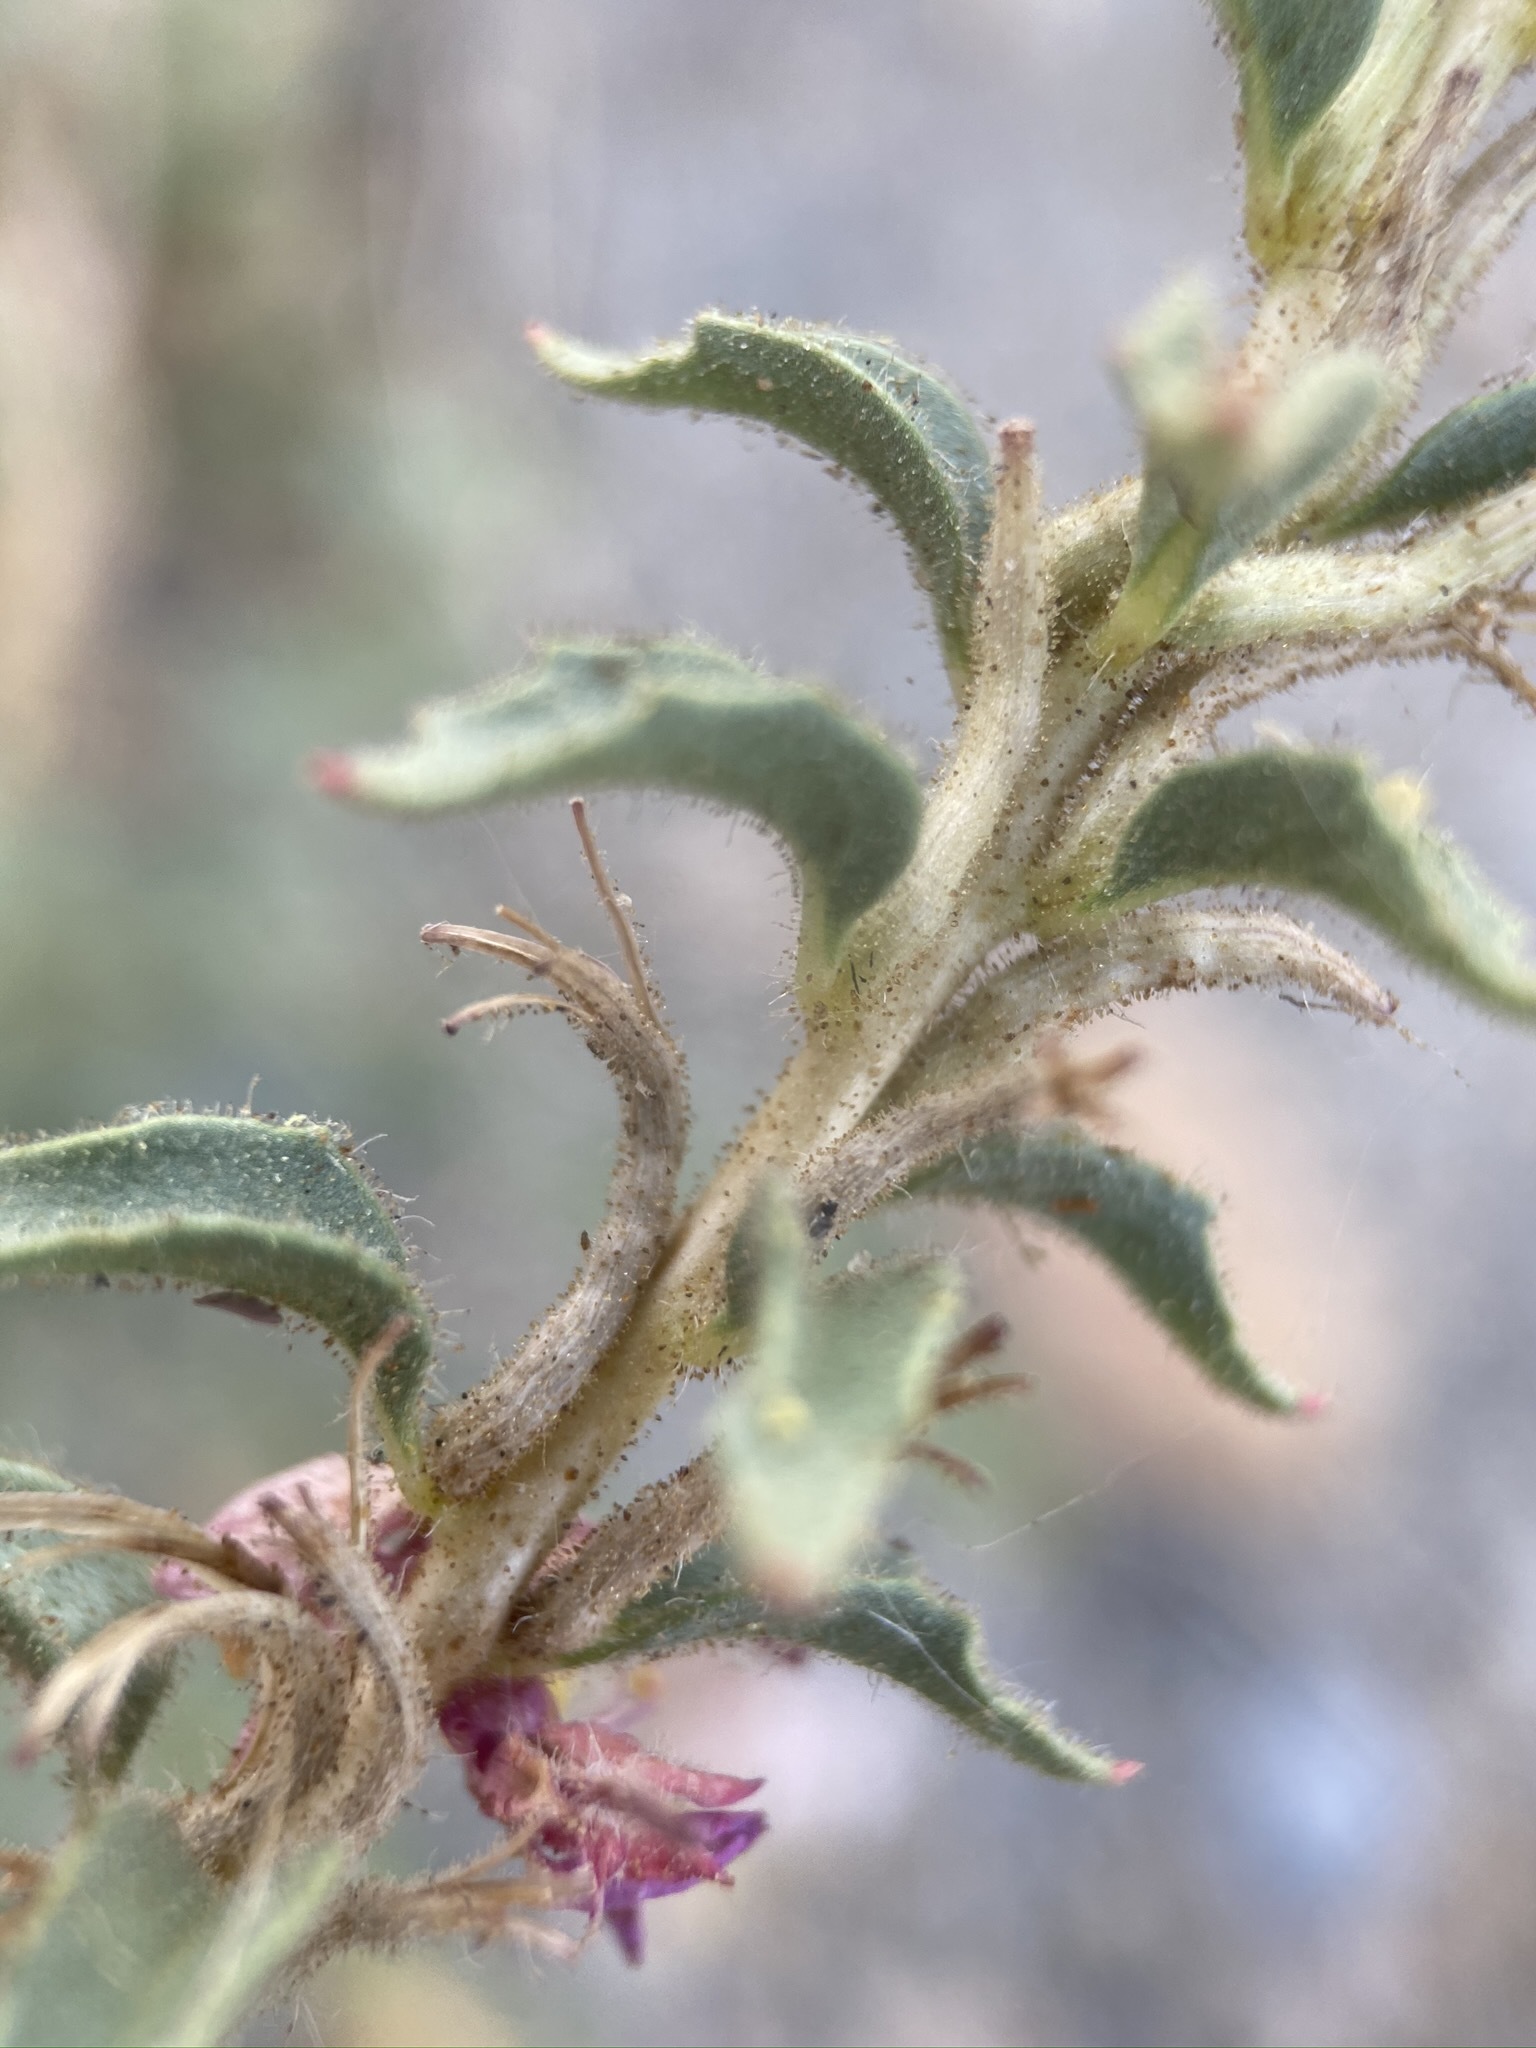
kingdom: Plantae
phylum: Tracheophyta
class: Magnoliopsida
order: Myrtales
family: Onagraceae
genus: Eremothera
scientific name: Eremothera boothii
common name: Booth's evening primrose
